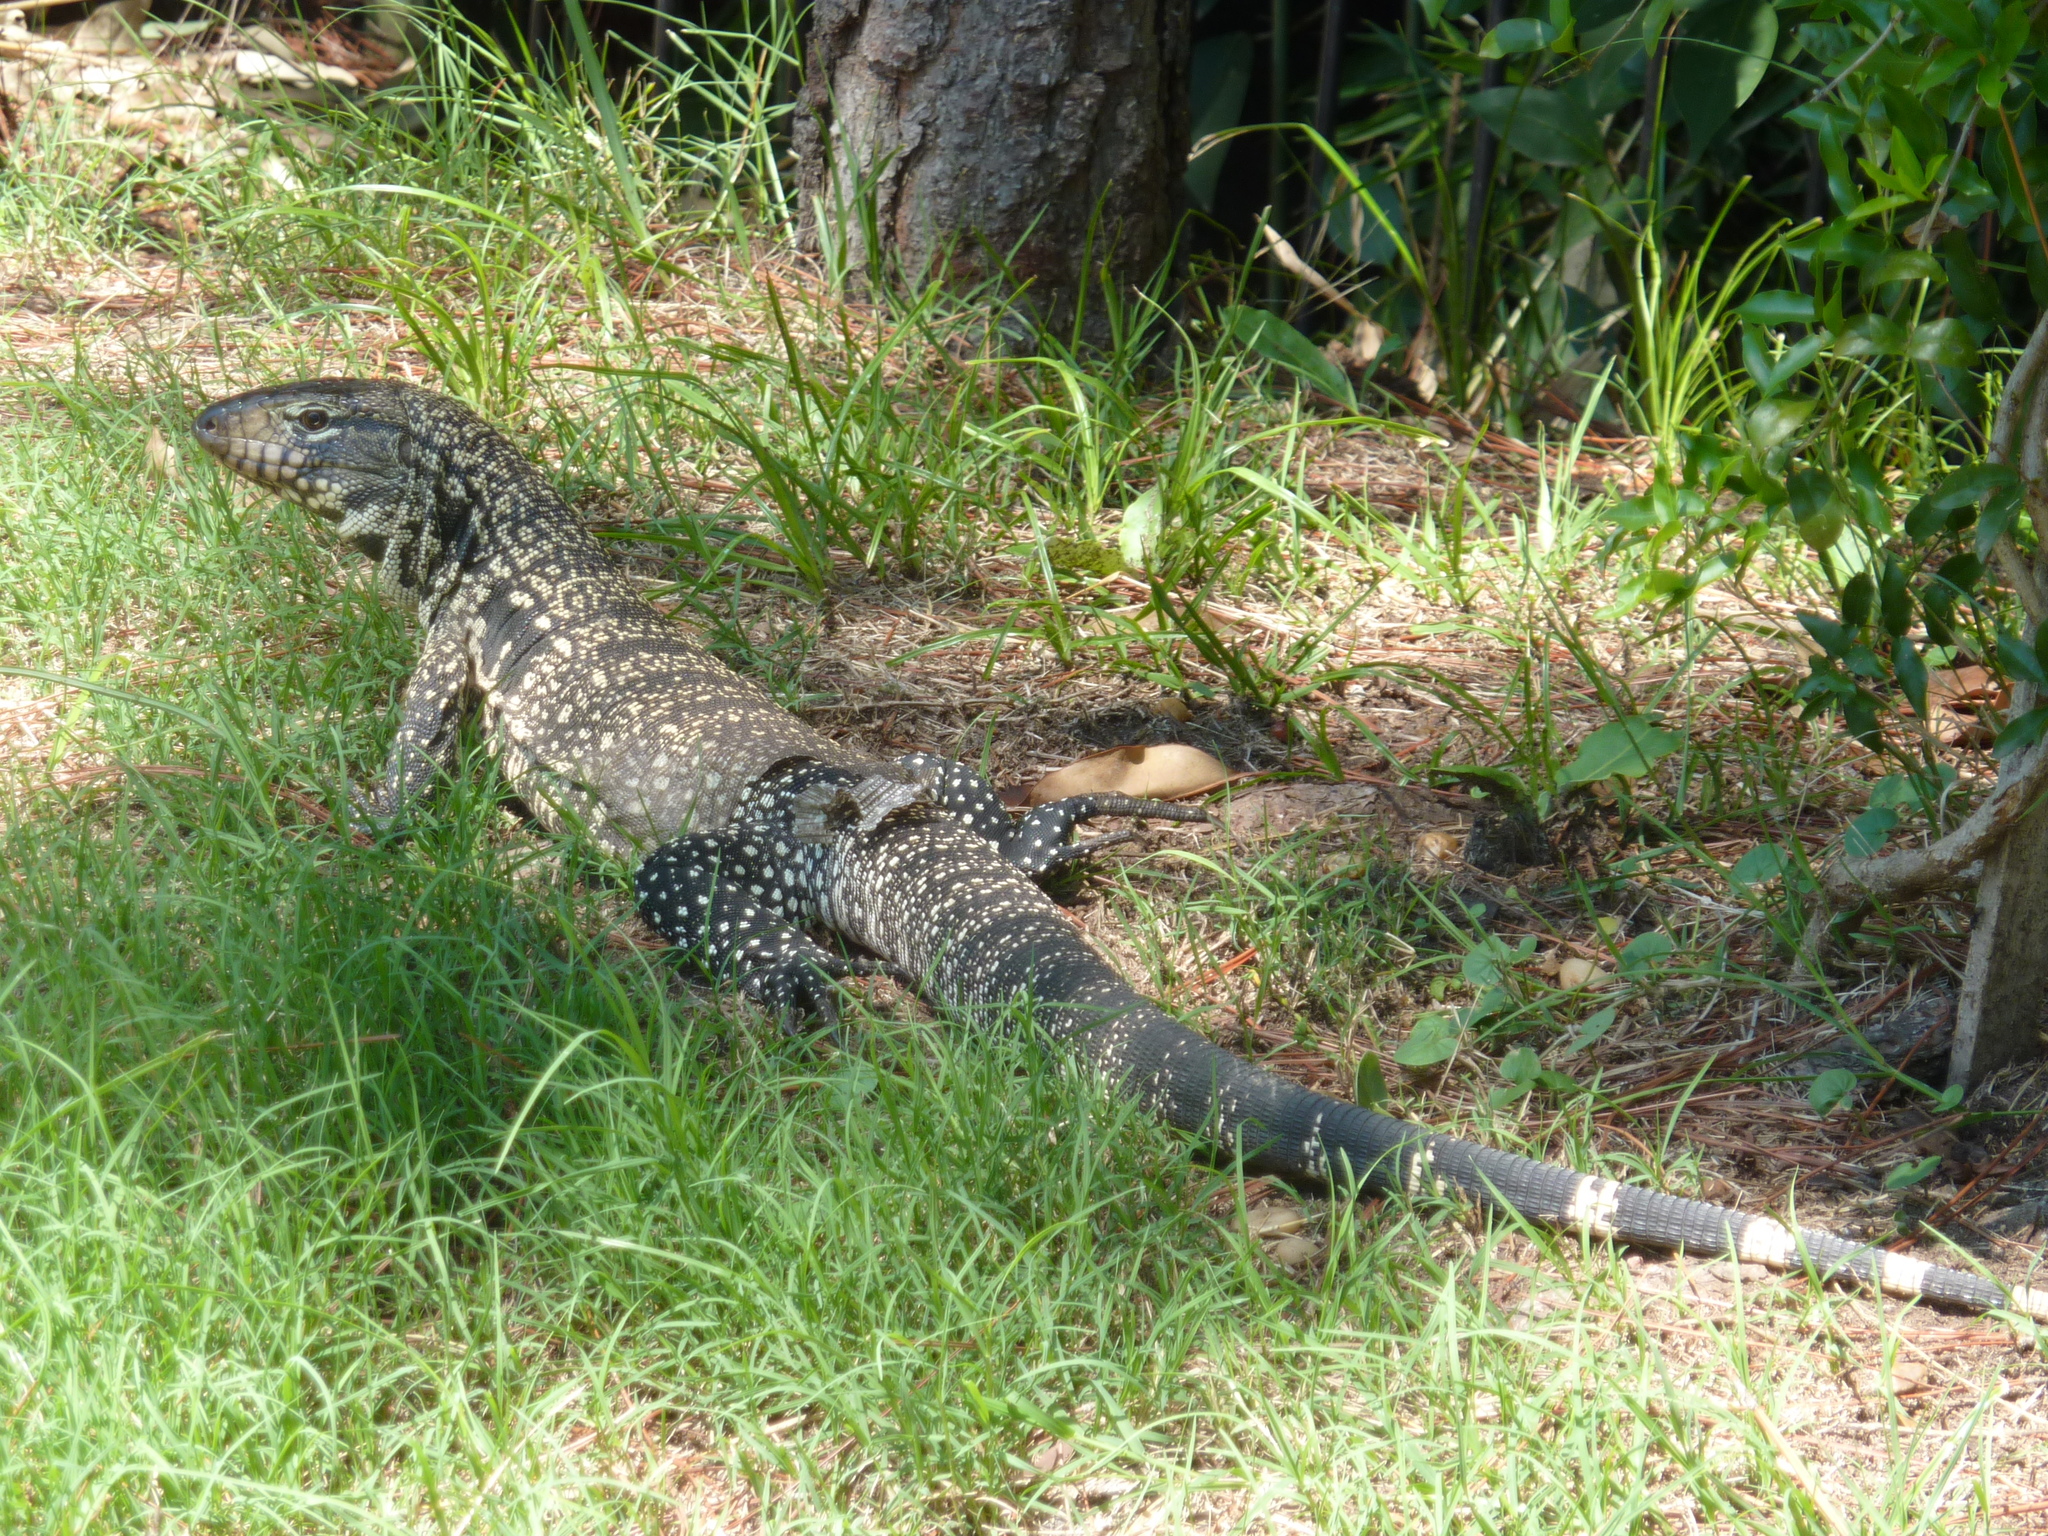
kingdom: Animalia
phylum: Chordata
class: Squamata
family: Teiidae
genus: Salvator
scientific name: Salvator merianae
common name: Argentine black and white tegu
